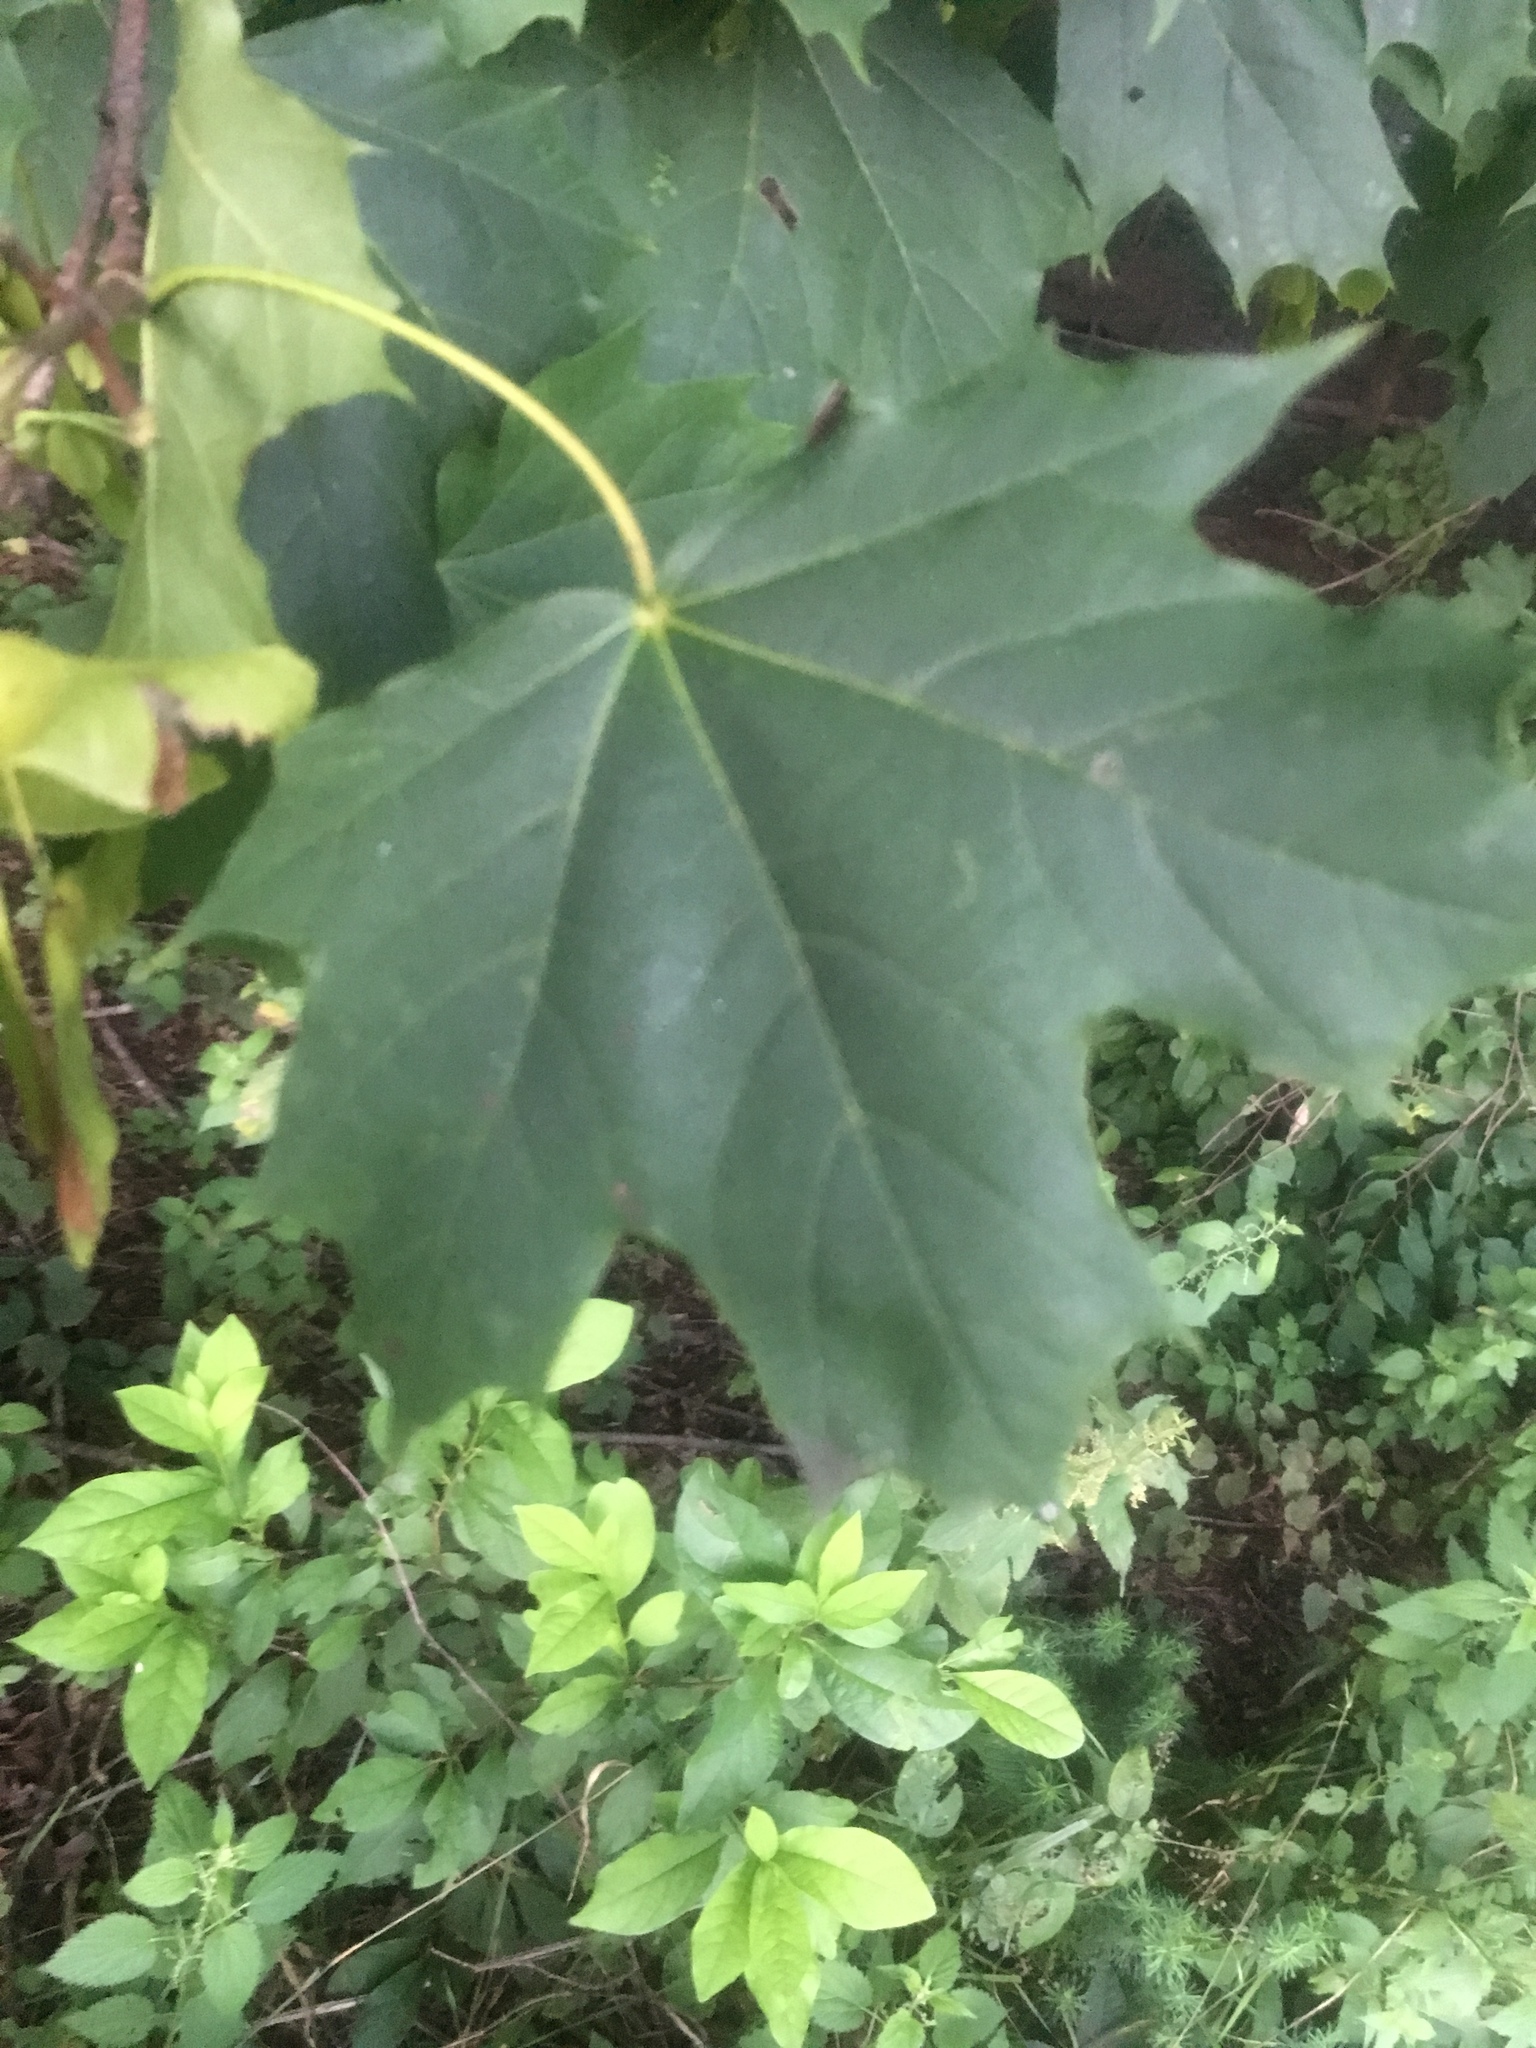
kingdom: Plantae
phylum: Tracheophyta
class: Magnoliopsida
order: Sapindales
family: Sapindaceae
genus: Acer
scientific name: Acer platanoides
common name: Norway maple
